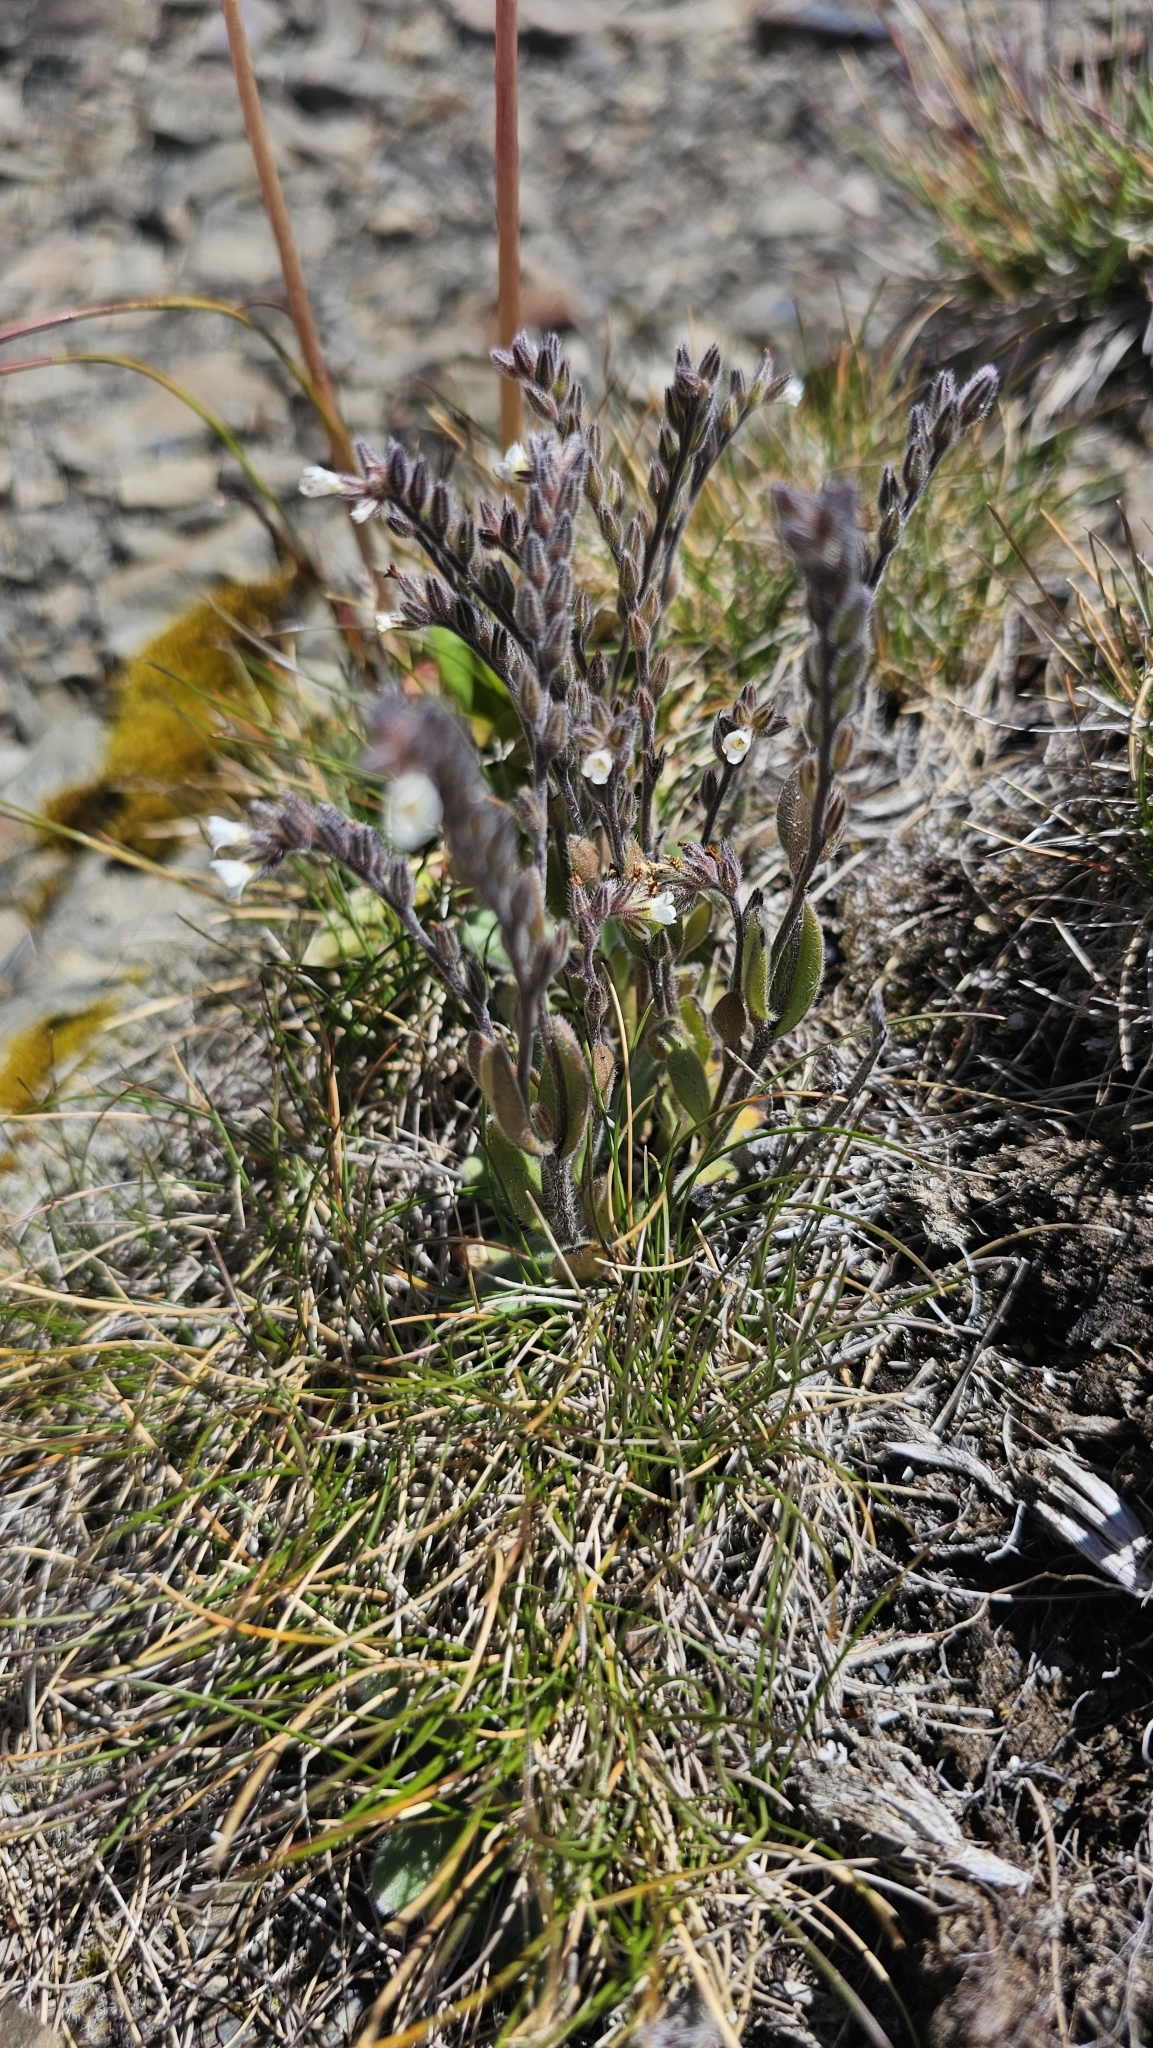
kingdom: Plantae
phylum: Tracheophyta
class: Magnoliopsida
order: Boraginales
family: Boraginaceae
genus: Myosotis
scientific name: Myosotis saxatilis
